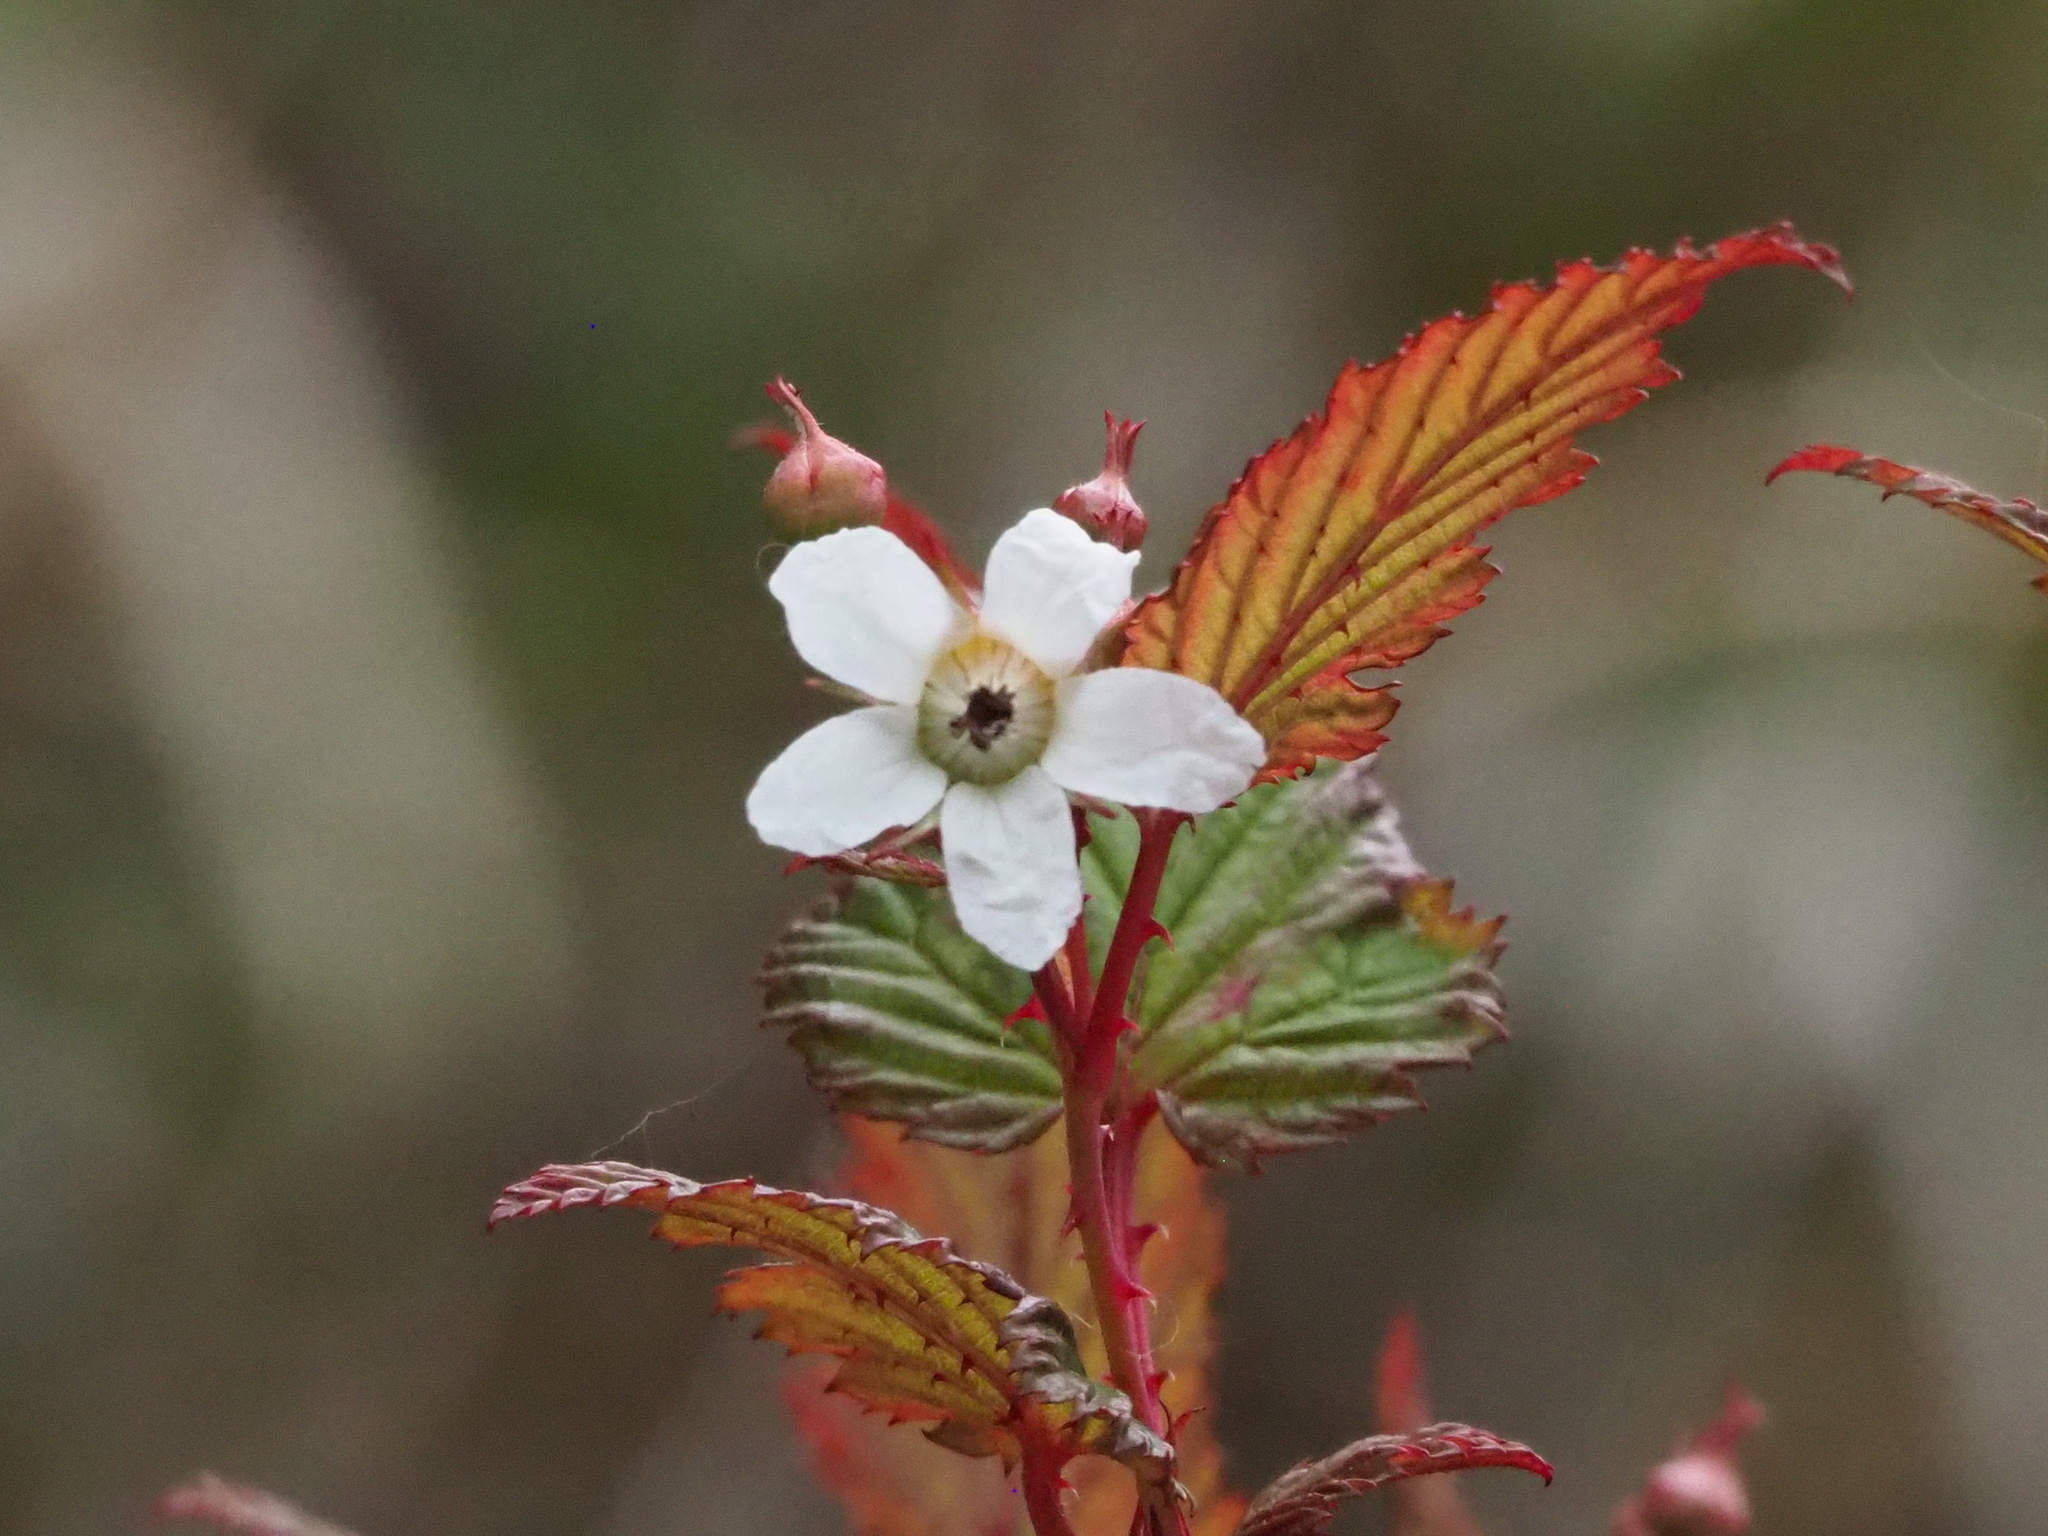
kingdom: Plantae
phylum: Tracheophyta
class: Magnoliopsida
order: Rosales
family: Rosaceae
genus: Rubus
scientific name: Rubus subcrataegifolius
